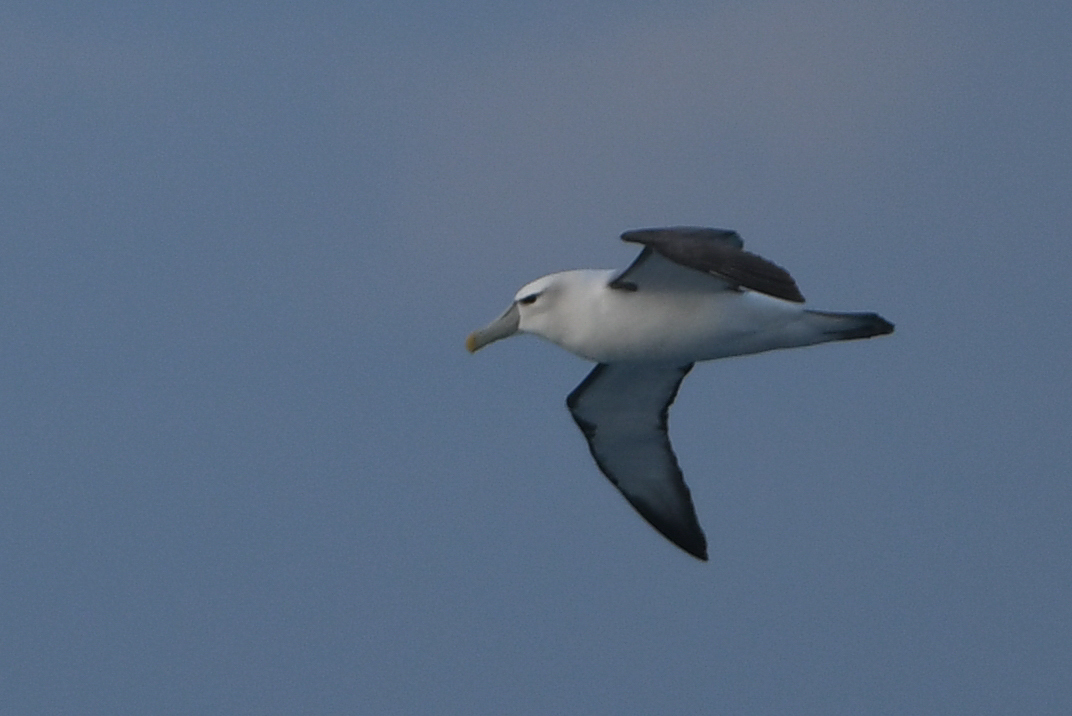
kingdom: Animalia
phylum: Chordata
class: Aves
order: Procellariiformes
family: Diomedeidae
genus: Thalassarche
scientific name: Thalassarche cauta
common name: Shy albatross
